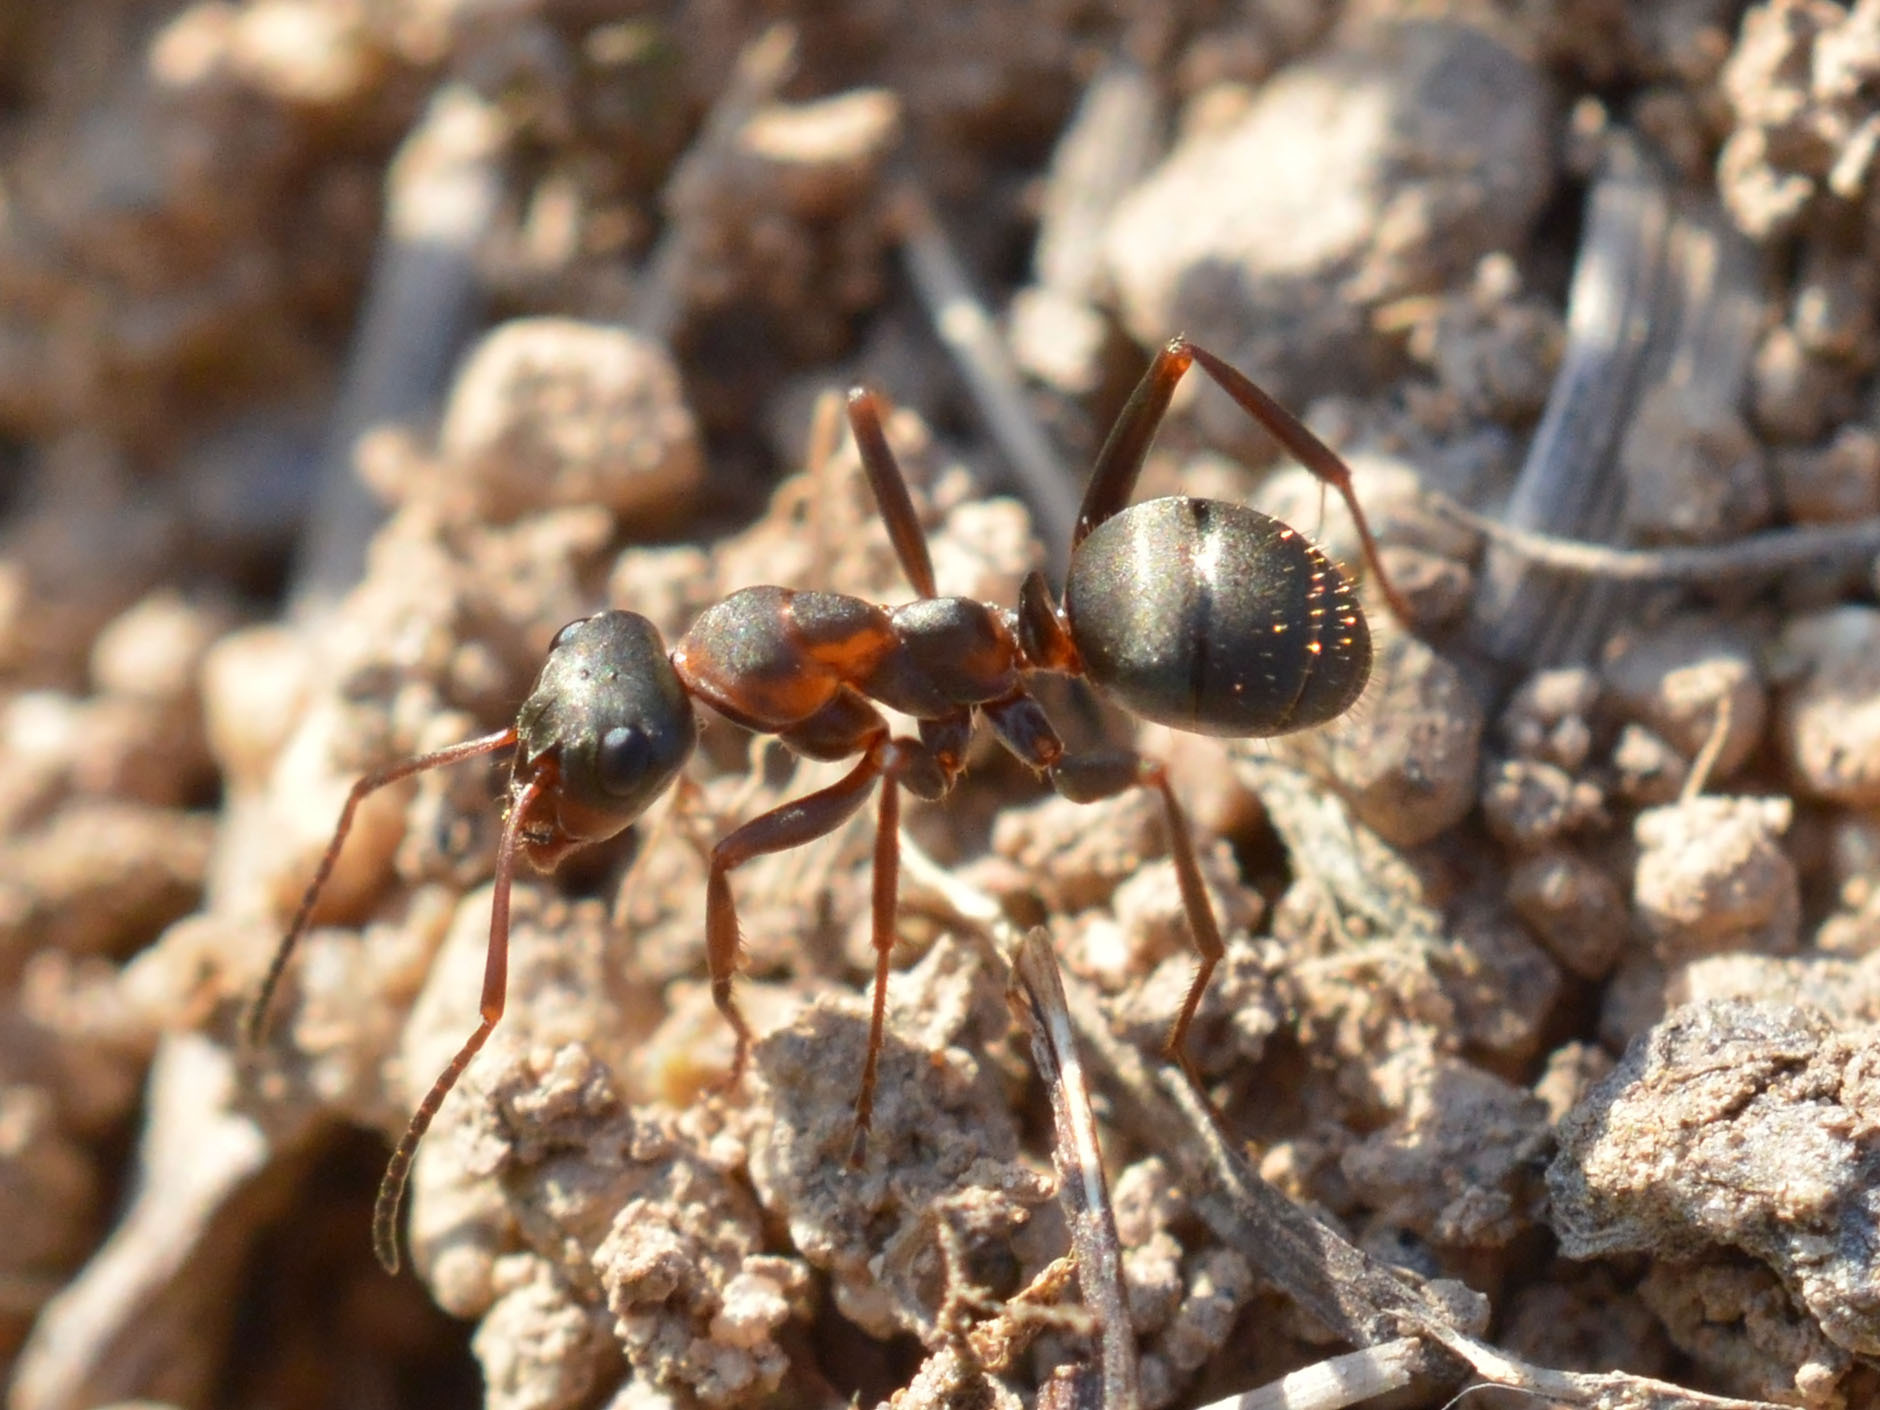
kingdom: Animalia
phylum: Arthropoda
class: Insecta
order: Hymenoptera
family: Formicidae
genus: Formica
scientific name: Formica cunicularia
